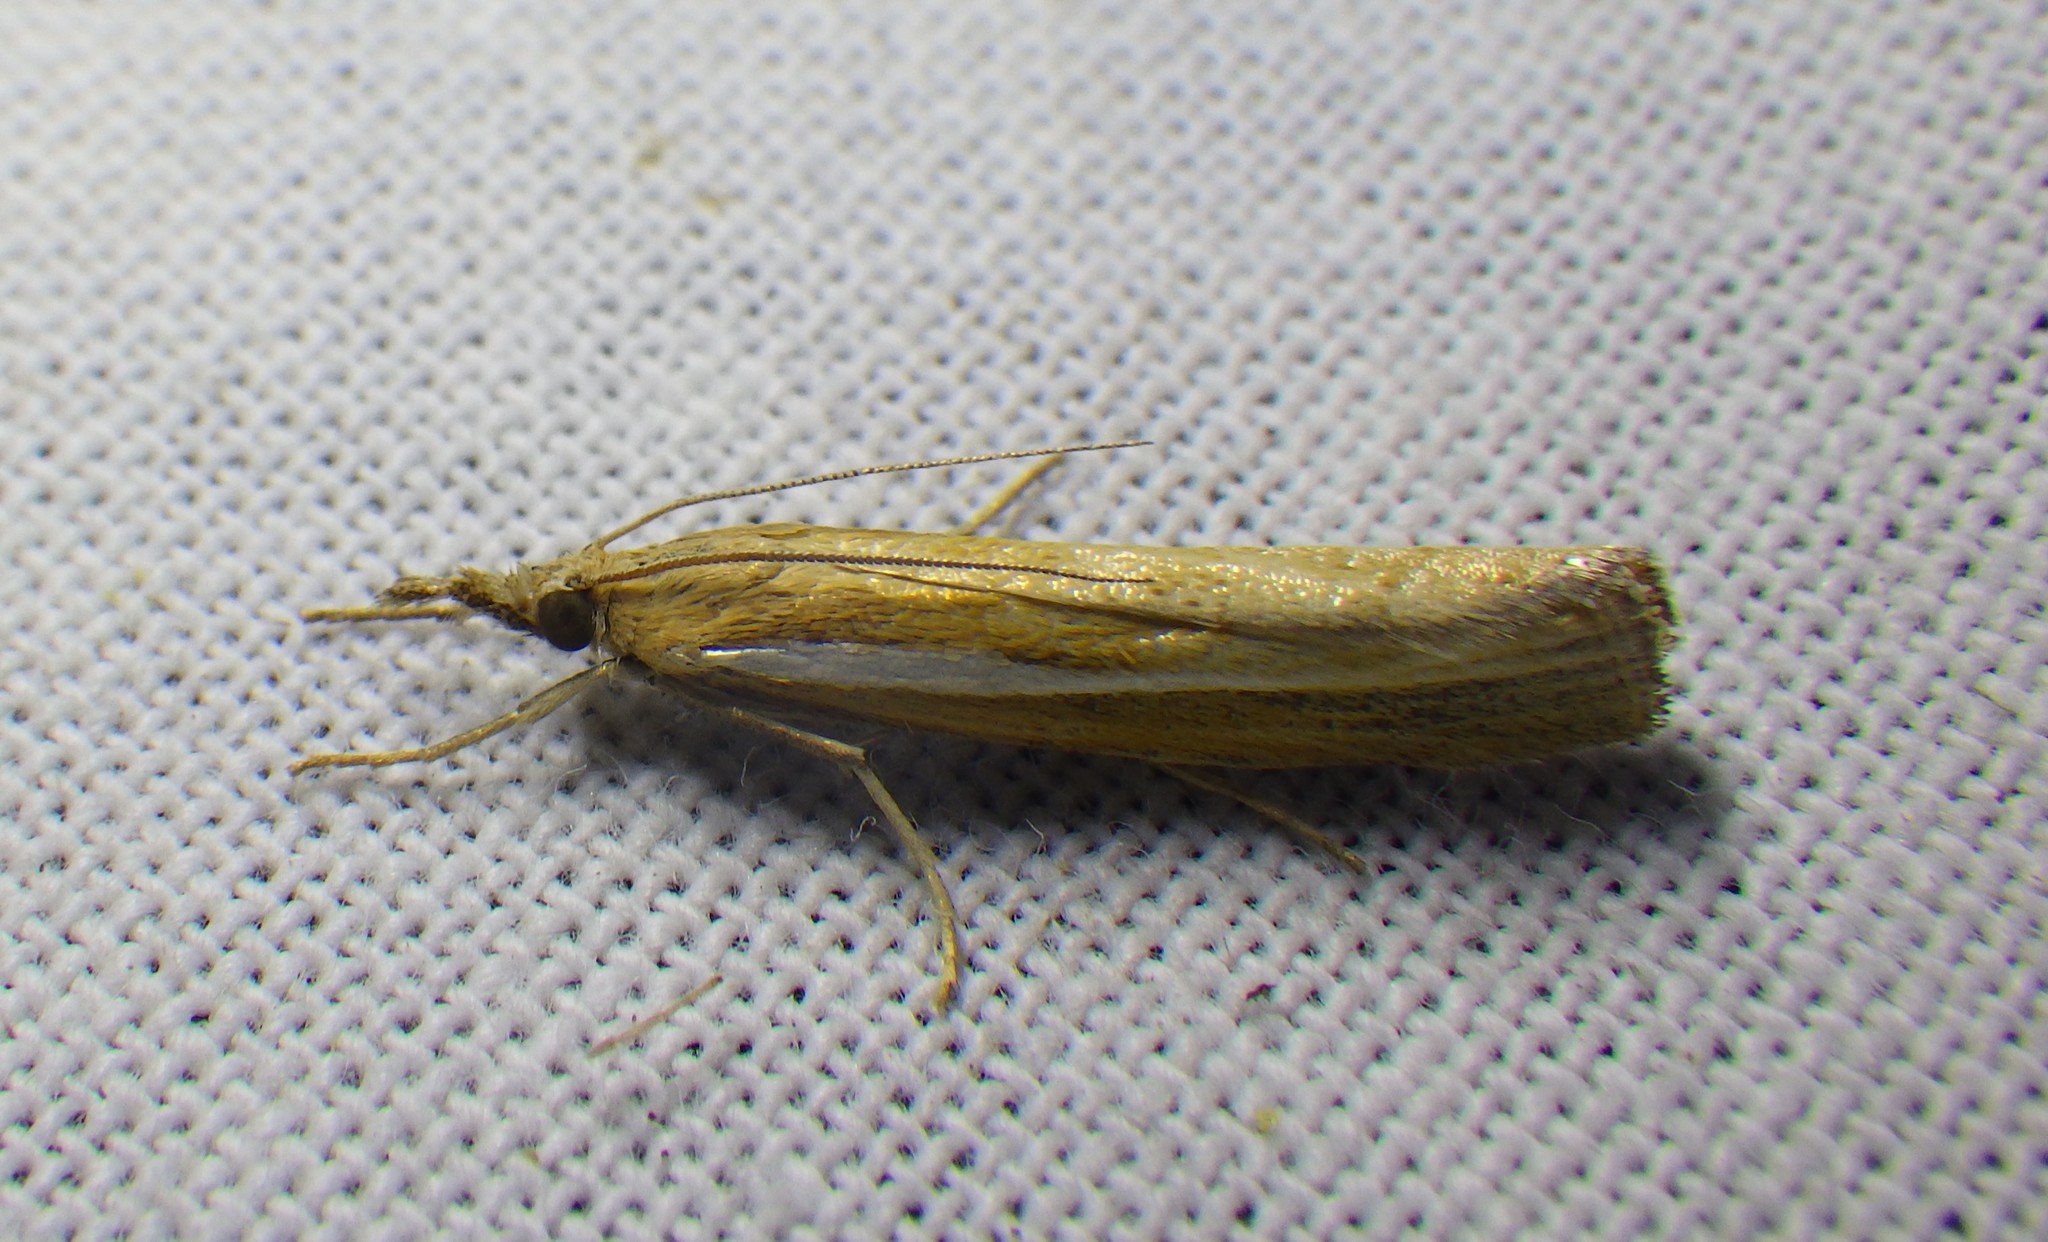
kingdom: Animalia
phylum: Arthropoda
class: Insecta
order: Lepidoptera
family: Crambidae
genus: Agriphila
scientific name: Agriphila tristellus
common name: Common grass-veneer
